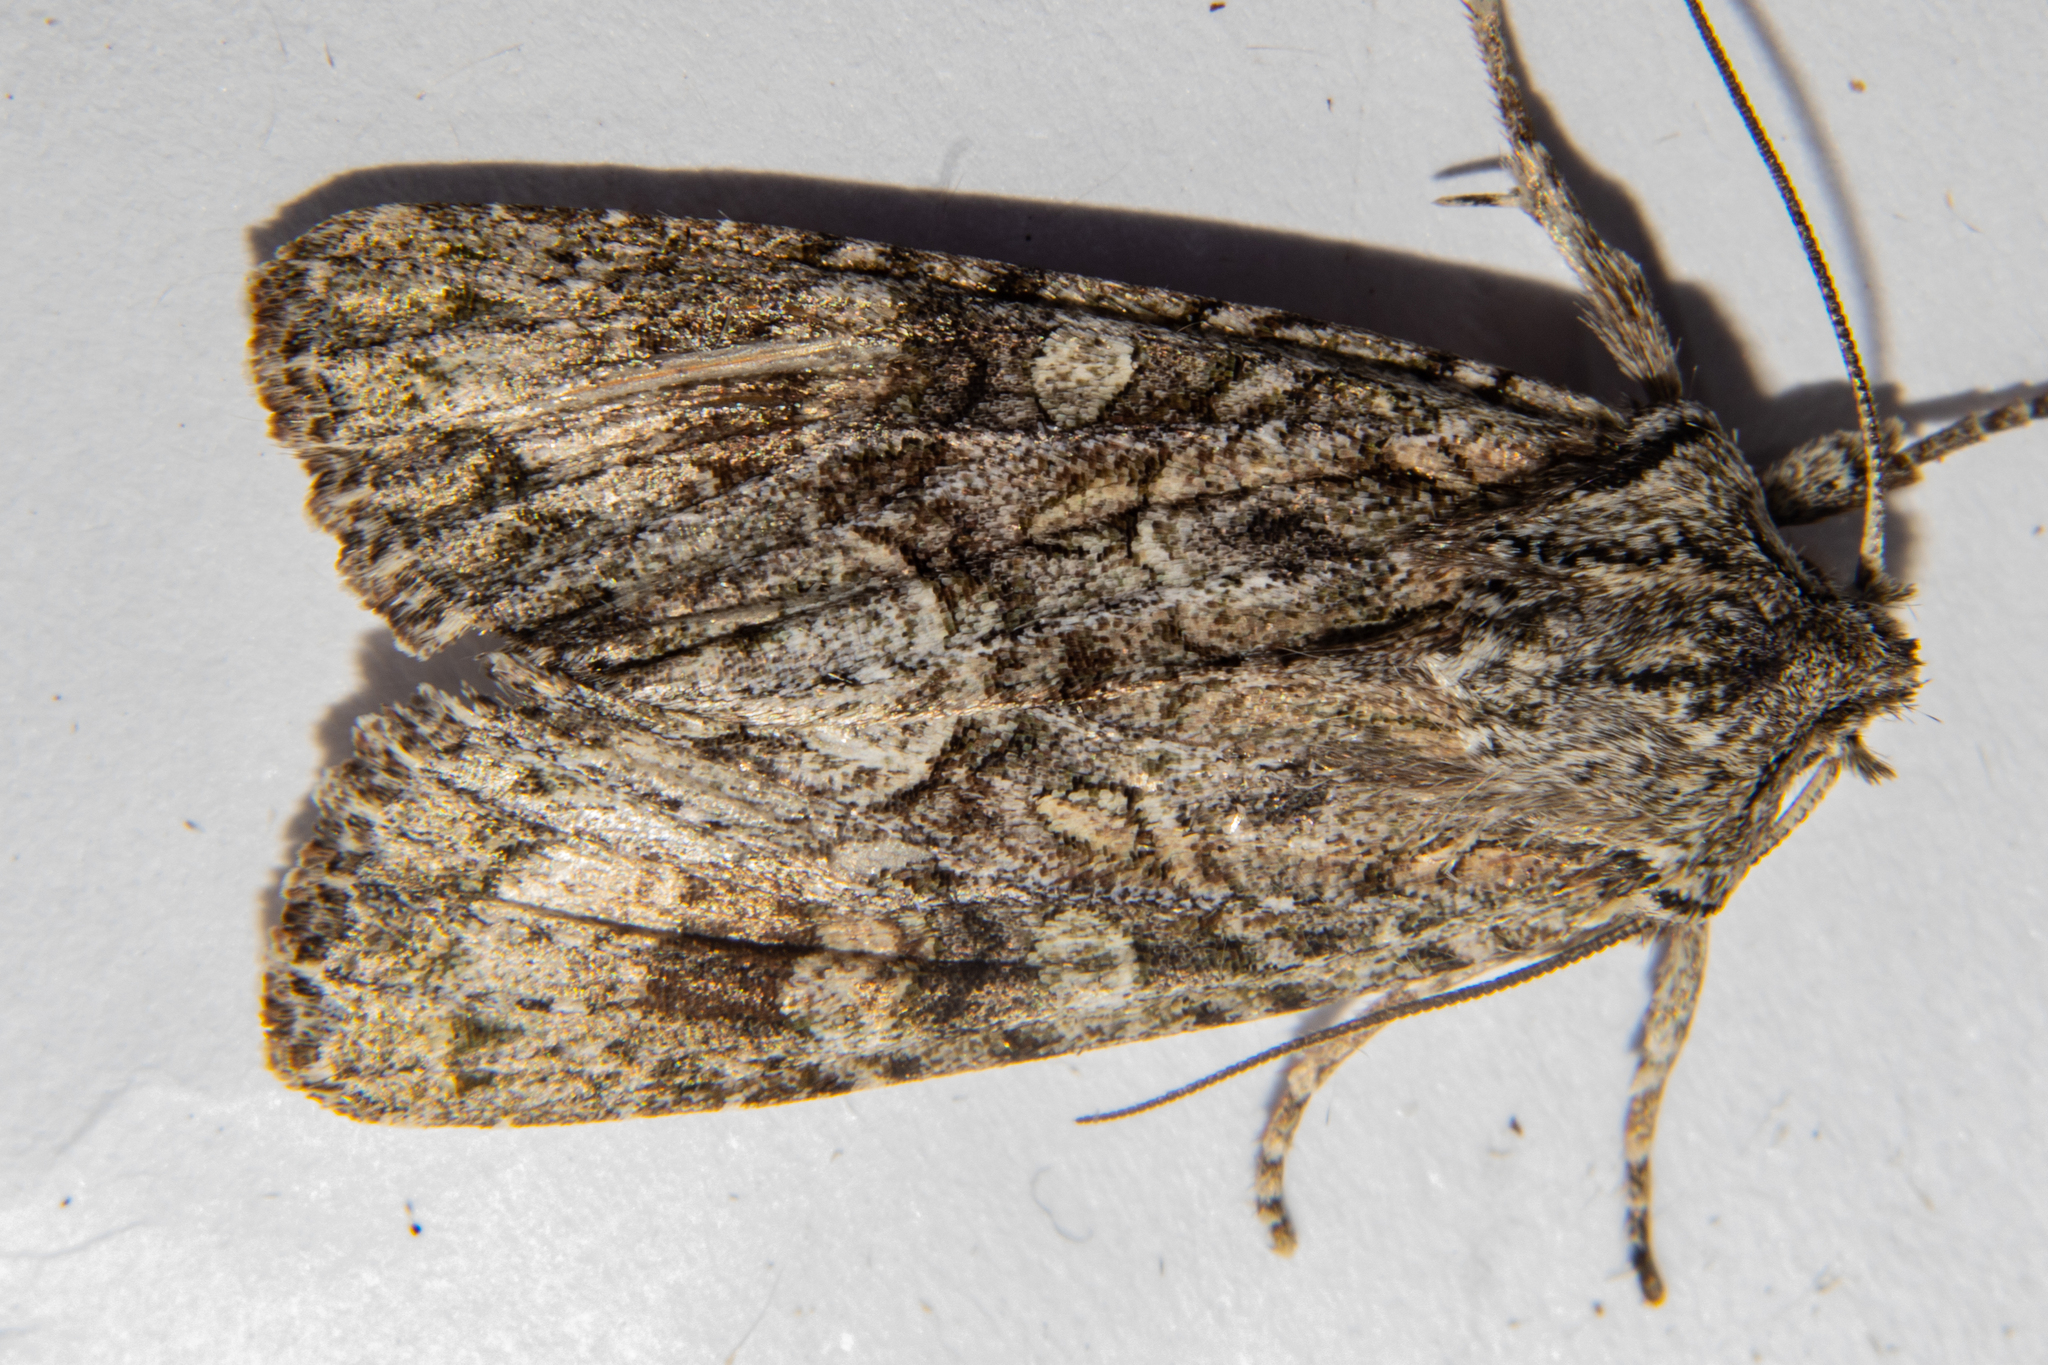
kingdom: Animalia
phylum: Arthropoda
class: Insecta
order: Lepidoptera
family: Noctuidae
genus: Ichneutica
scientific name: Ichneutica mutans
